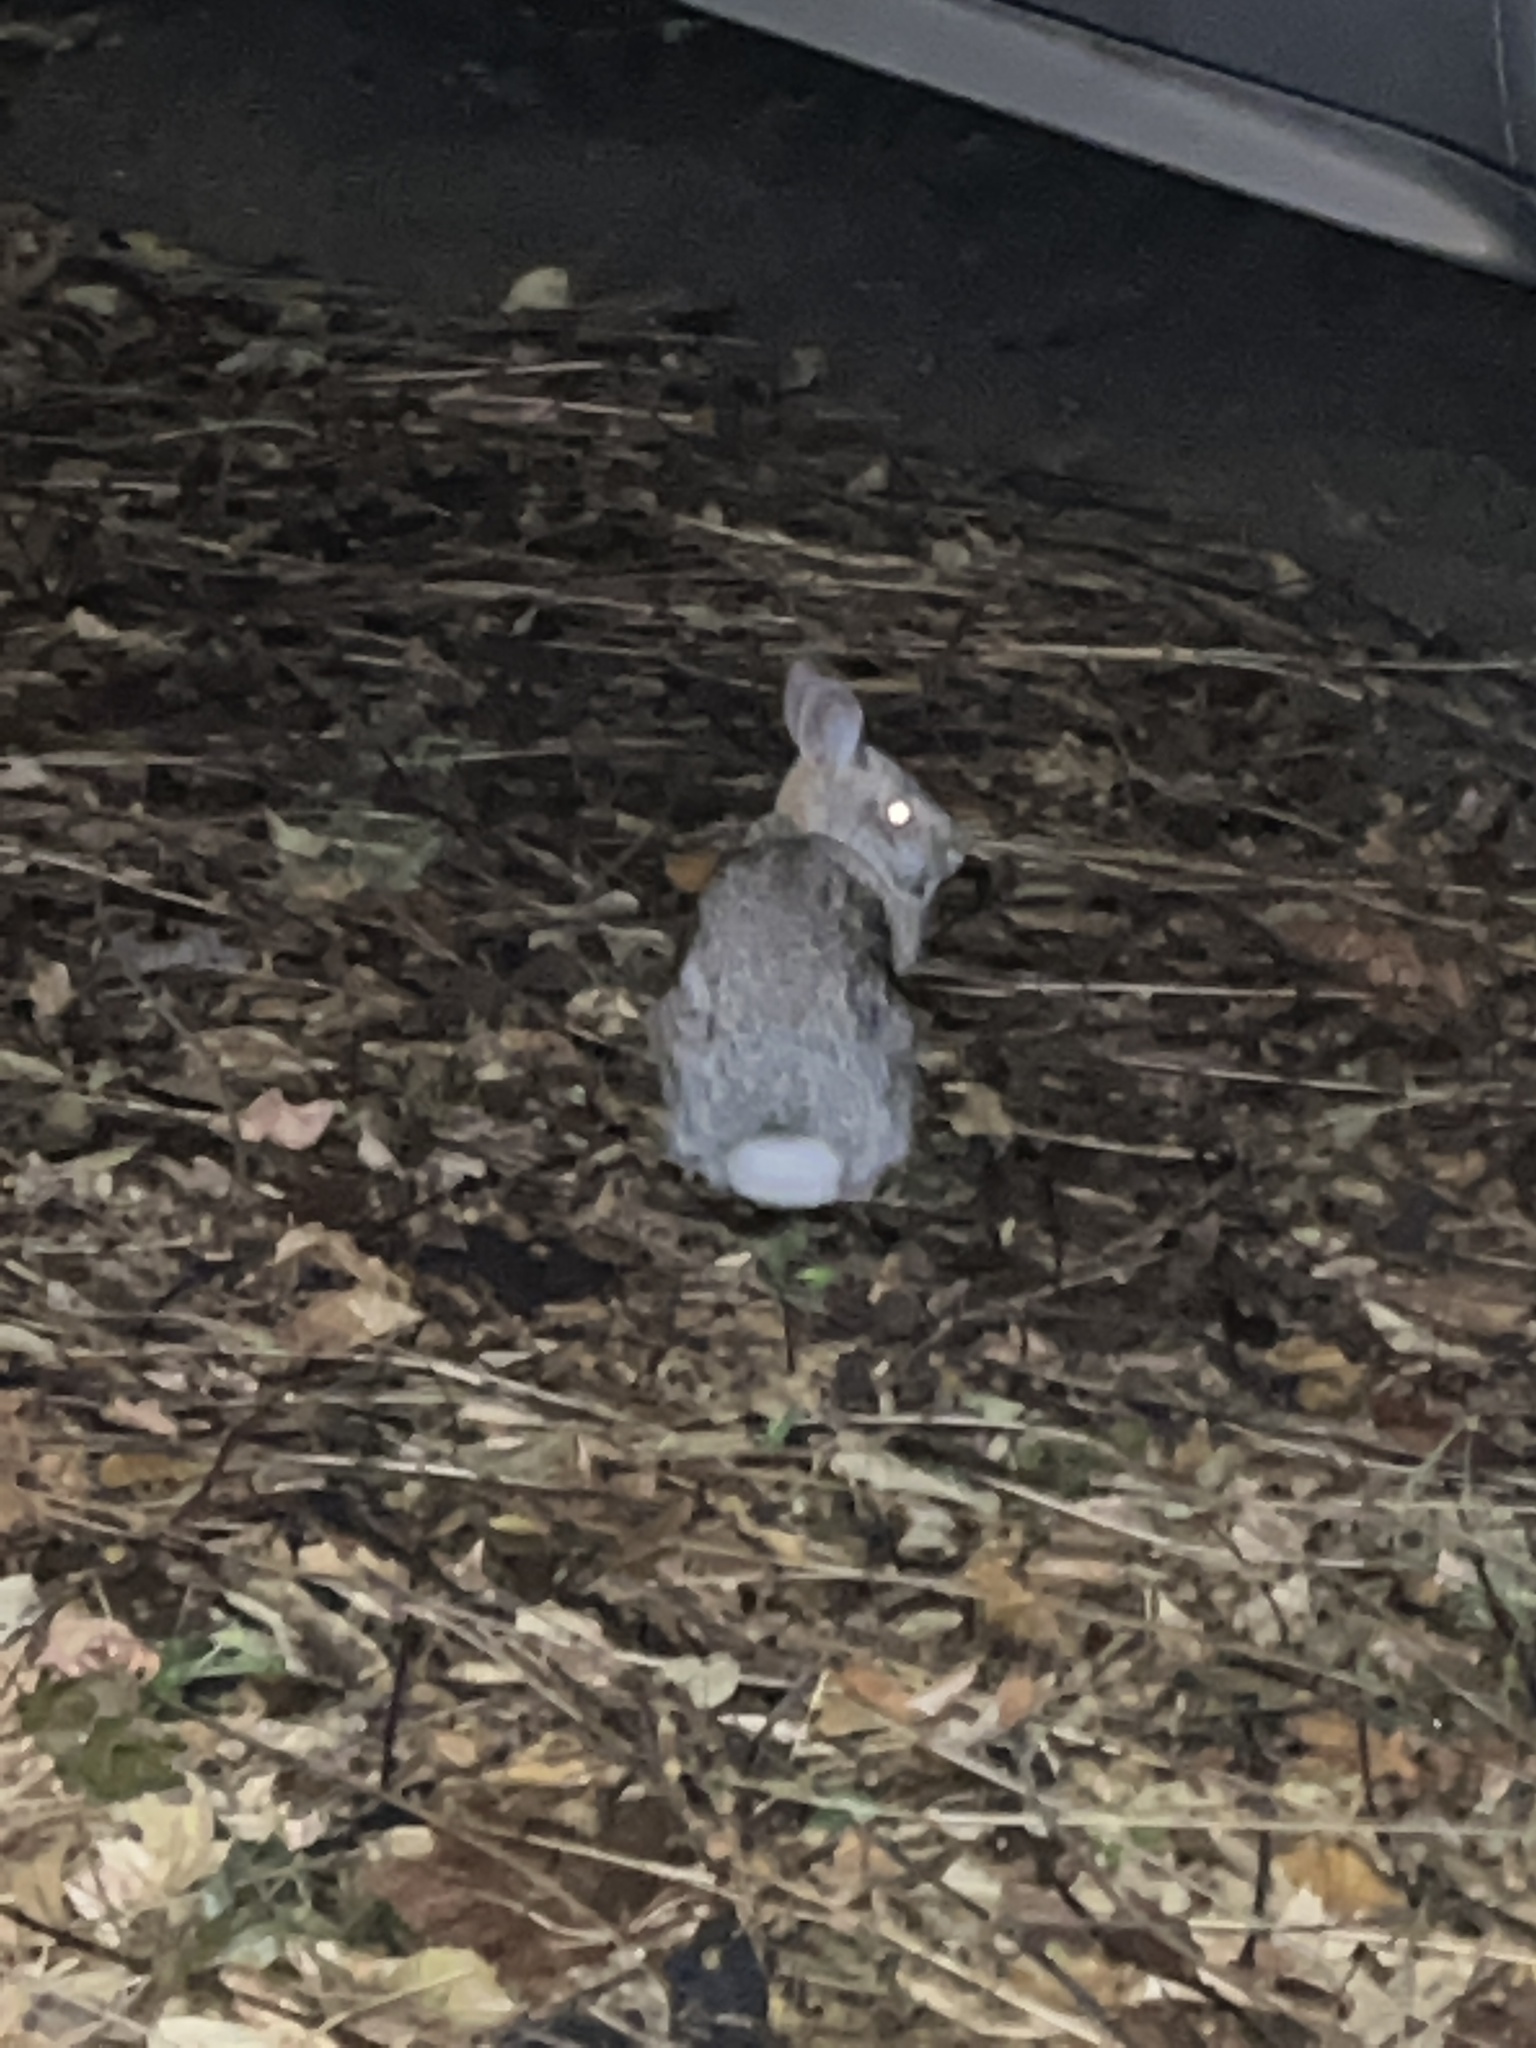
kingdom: Animalia
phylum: Chordata
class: Mammalia
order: Lagomorpha
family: Leporidae
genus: Sylvilagus
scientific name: Sylvilagus floridanus
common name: Eastern cottontail
